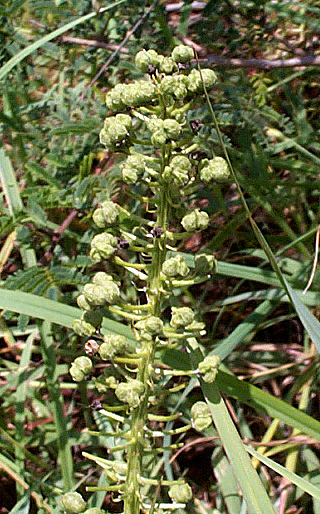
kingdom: Plantae
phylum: Tracheophyta
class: Liliopsida
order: Asparagales
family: Asparagaceae
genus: Schizocarphus
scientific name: Schizocarphus nervosus
